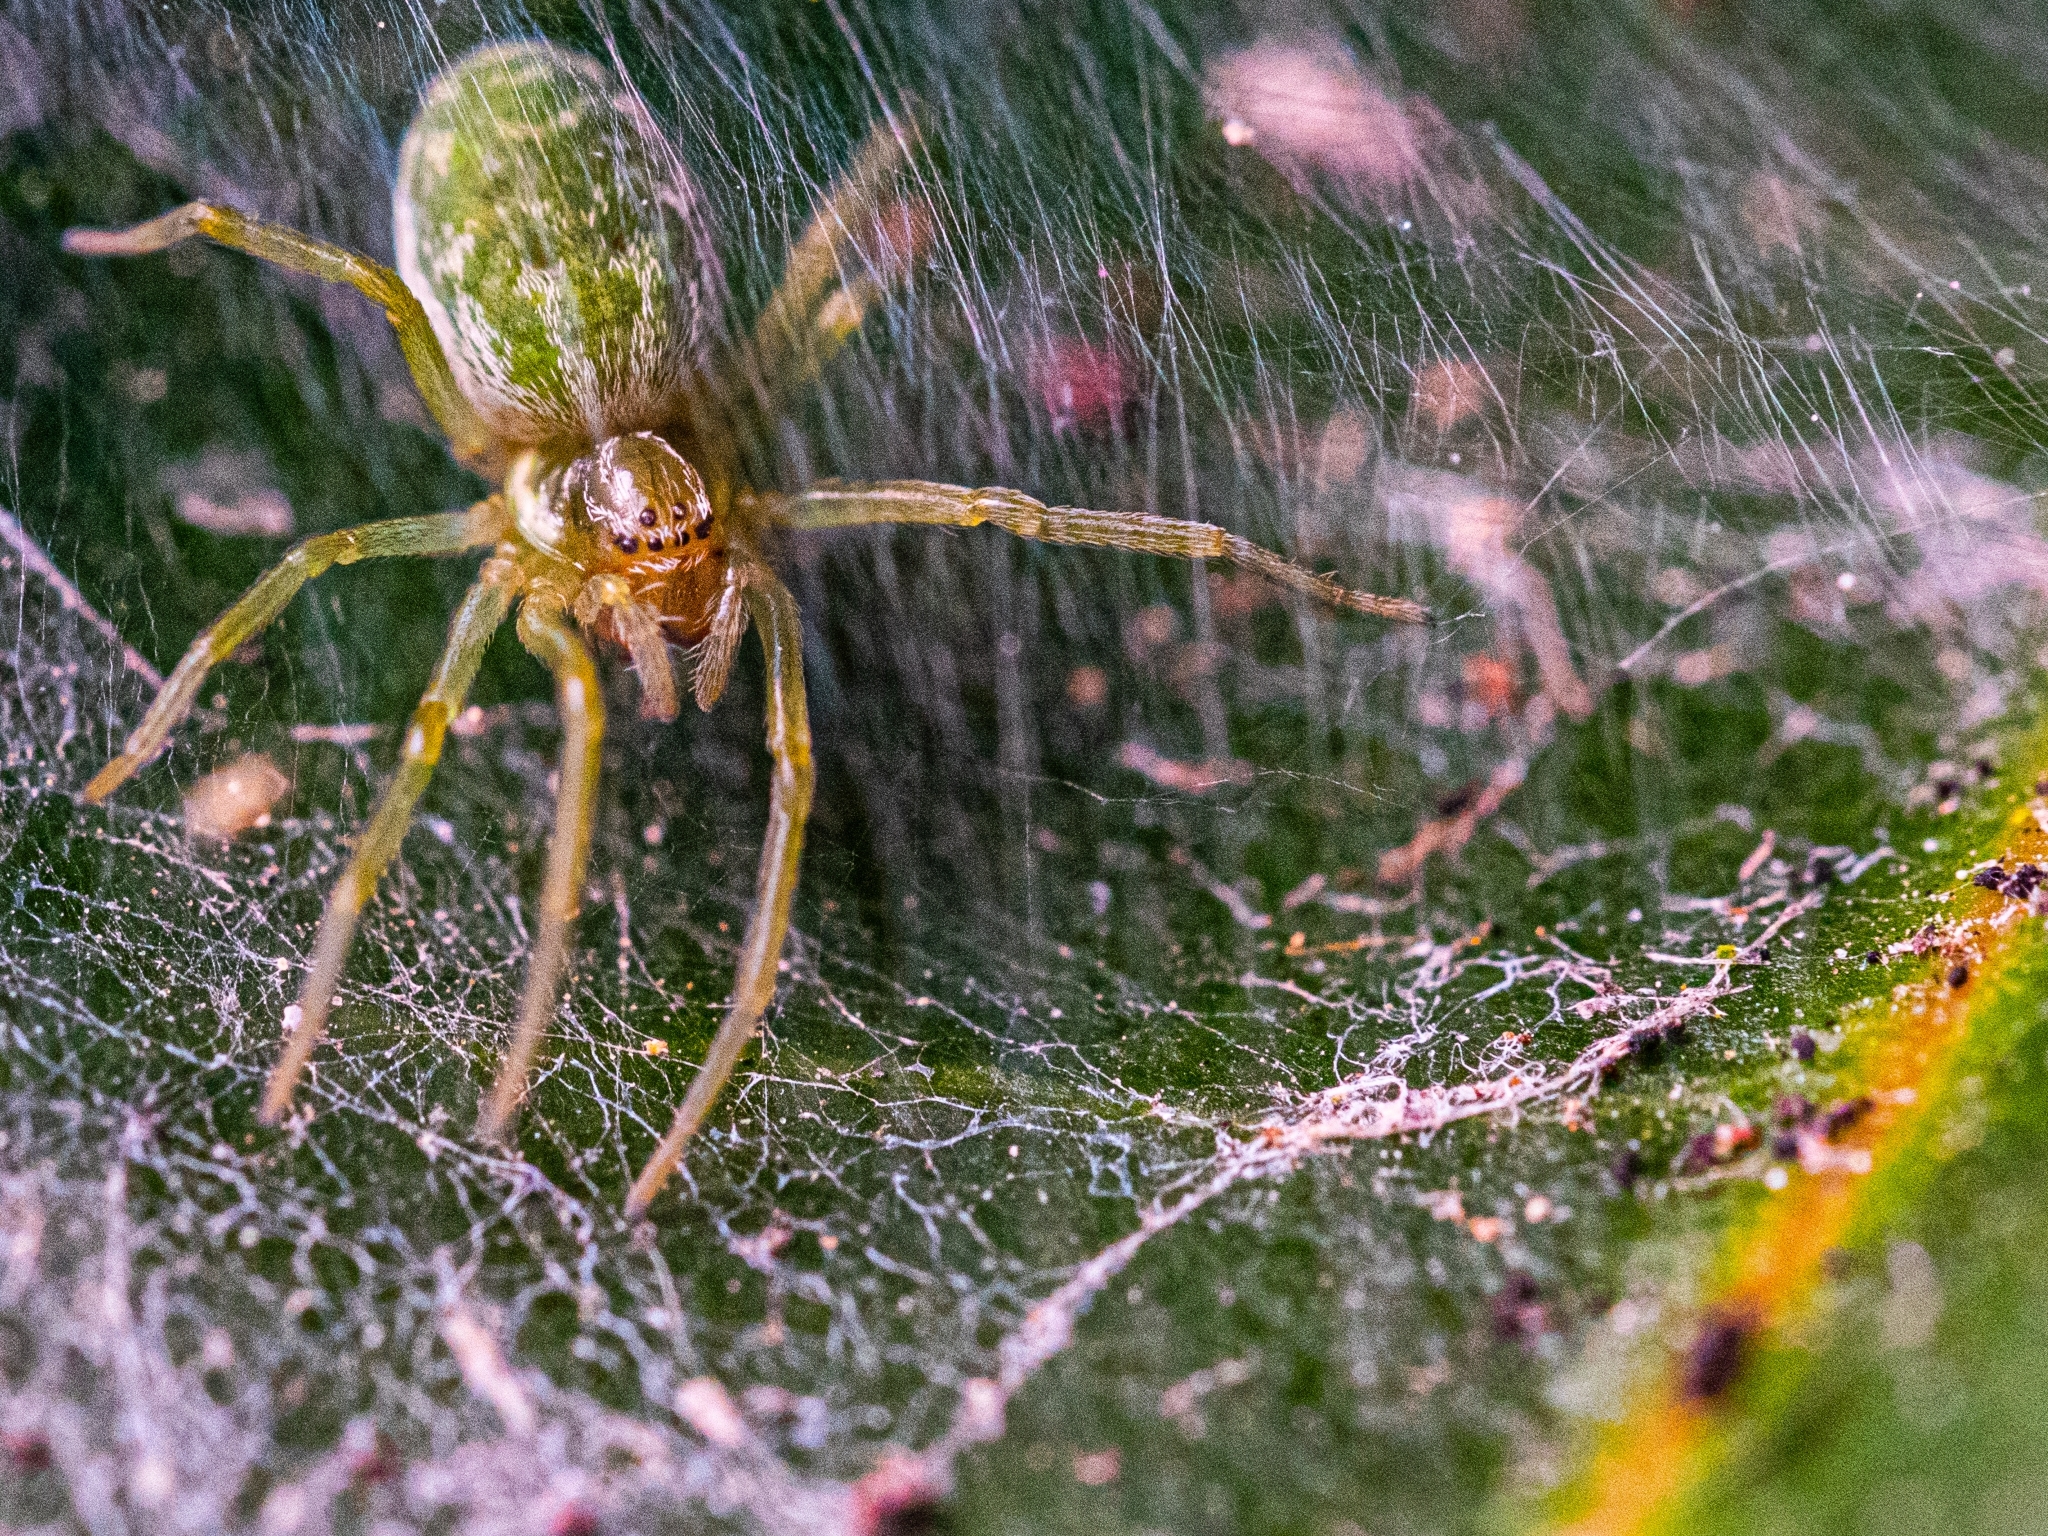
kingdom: Animalia
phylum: Arthropoda
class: Arachnida
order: Araneae
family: Dictynidae
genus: Nigma
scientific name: Nigma walckenaeri
